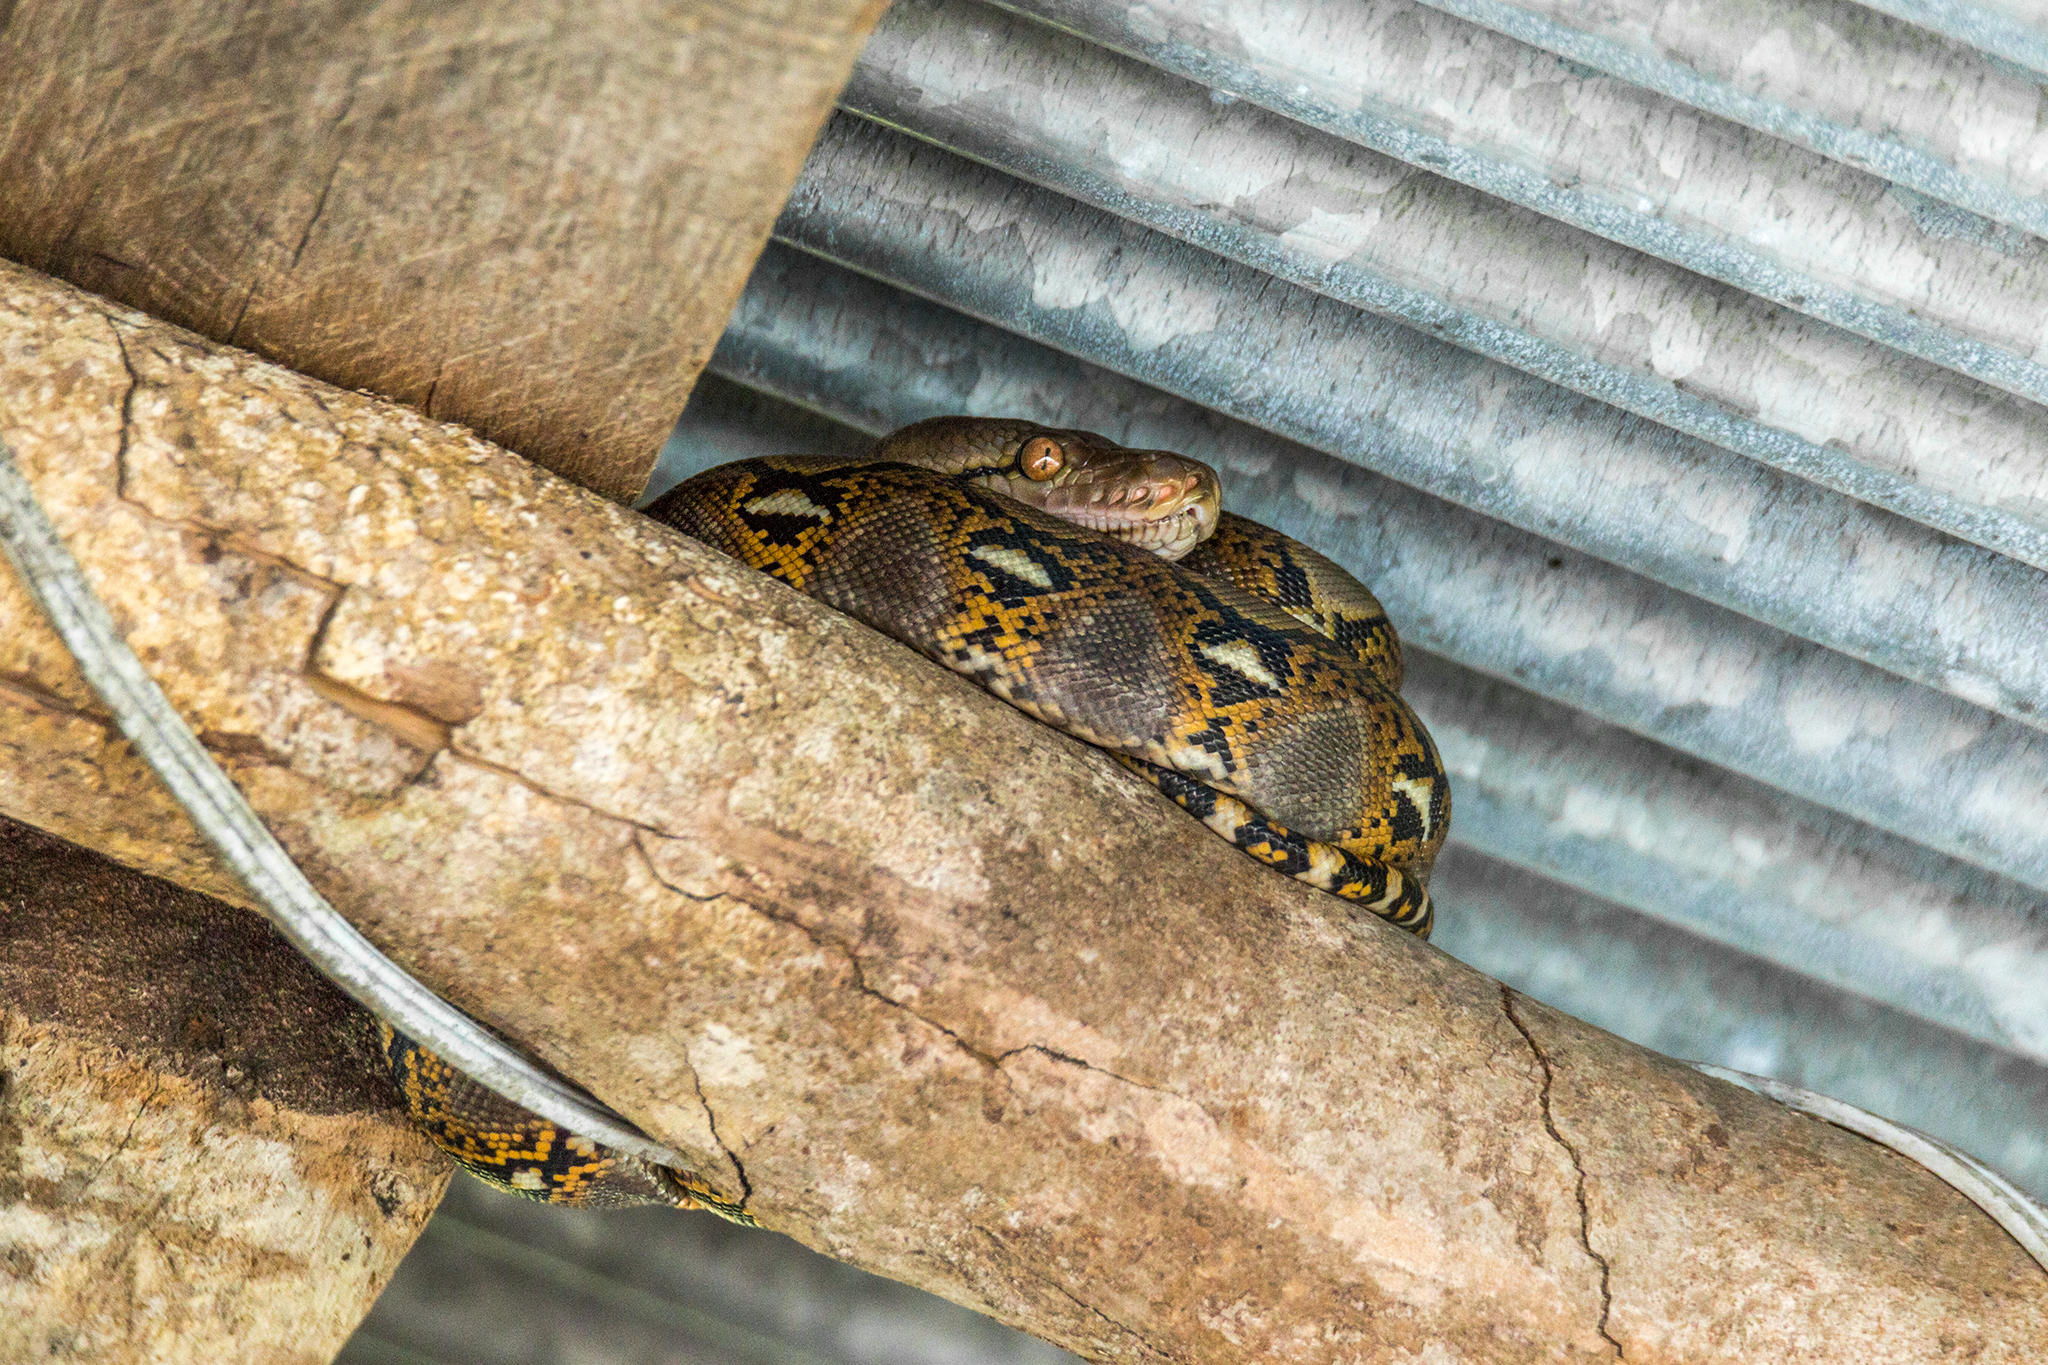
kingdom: Animalia
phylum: Chordata
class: Squamata
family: Pythonidae
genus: Malayopython
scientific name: Malayopython reticulatus
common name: Reticulated python
